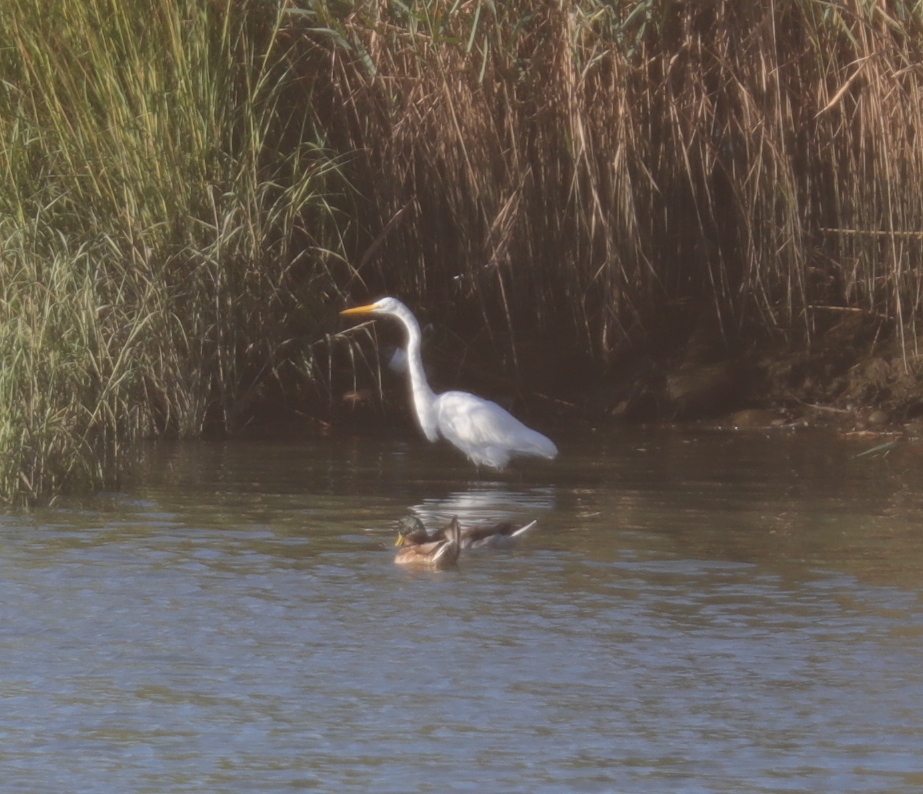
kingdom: Animalia
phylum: Chordata
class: Aves
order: Anseriformes
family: Anatidae
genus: Anas
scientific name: Anas platyrhynchos
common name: Mallard
